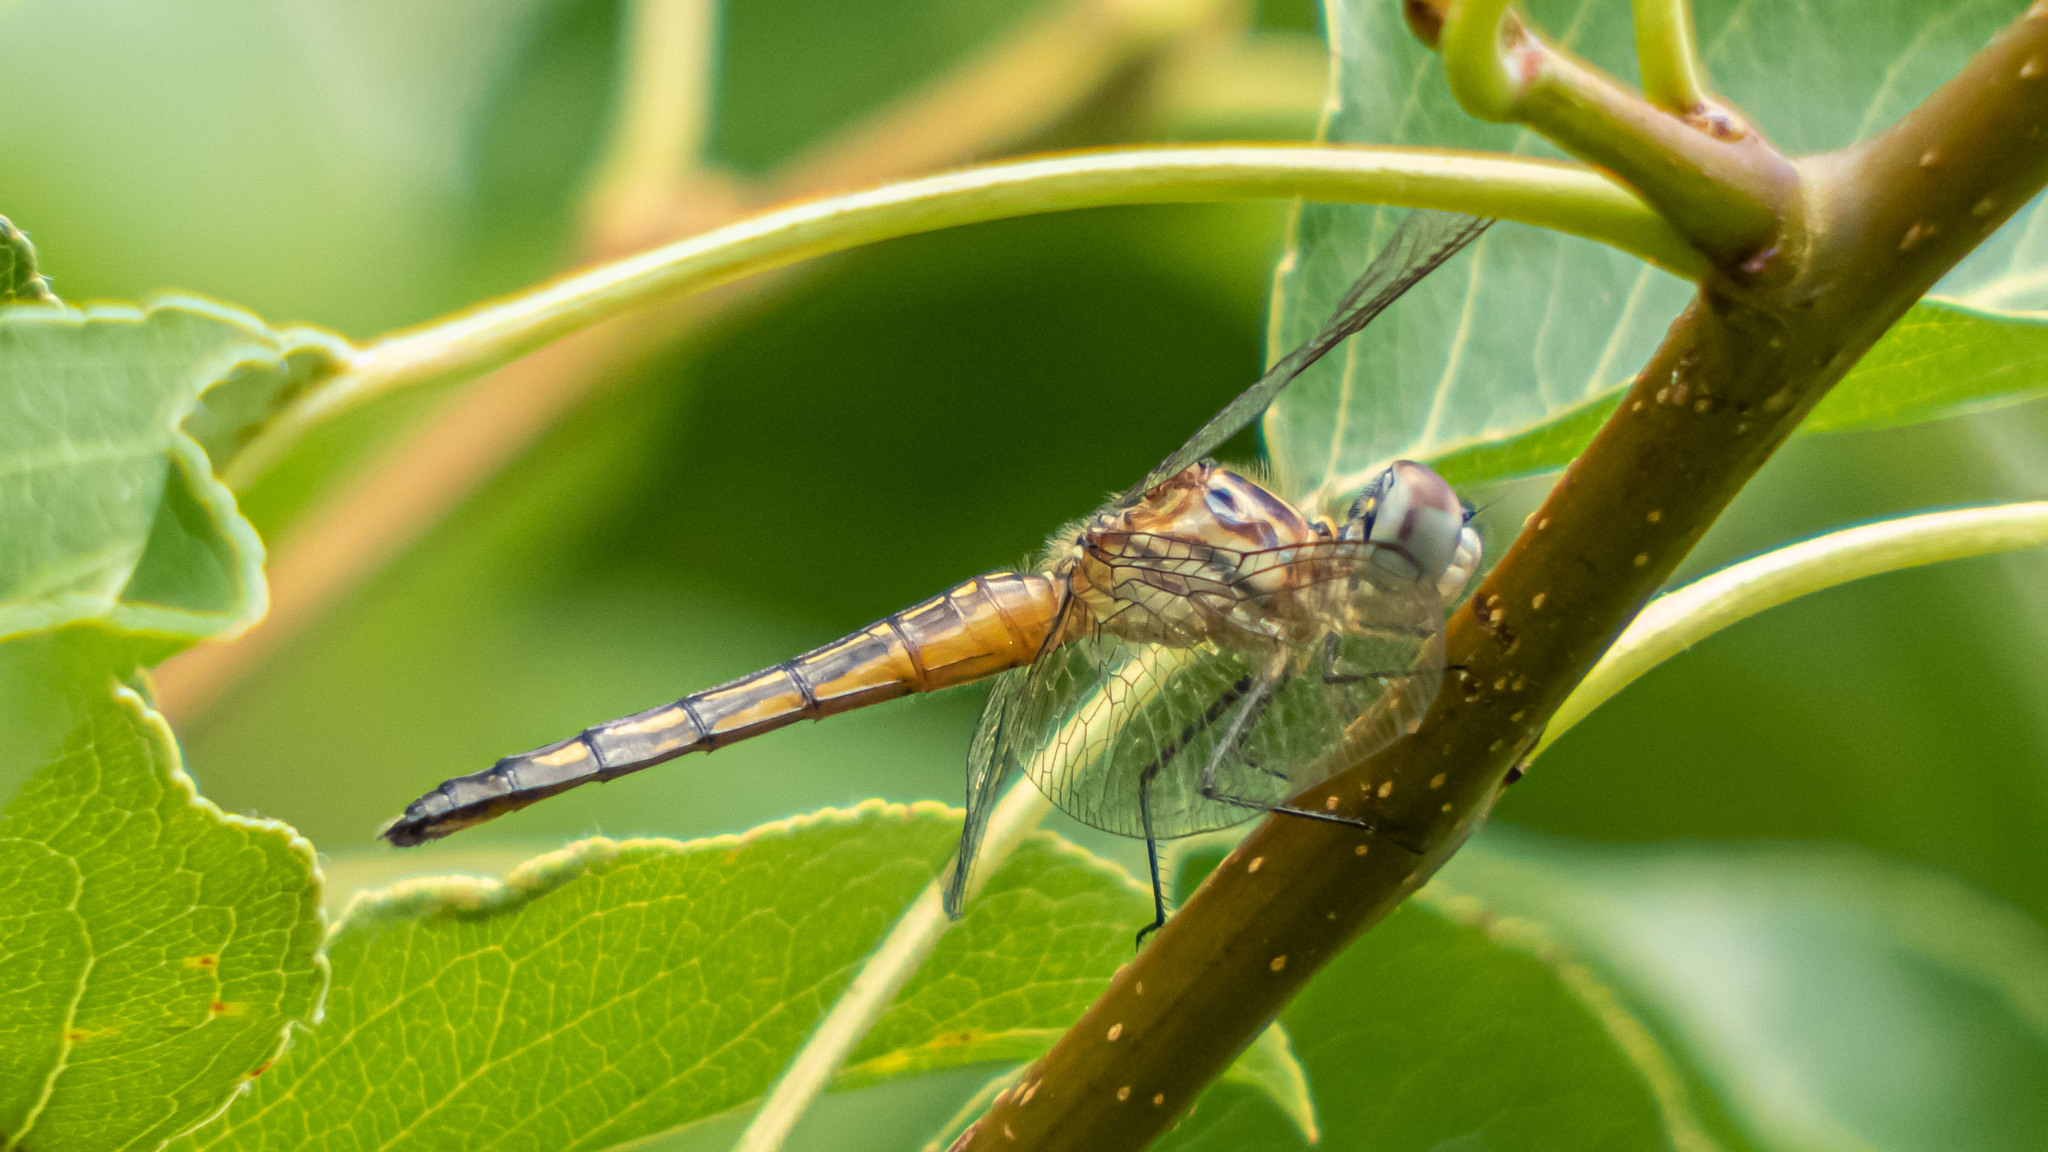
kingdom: Animalia
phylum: Arthropoda
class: Insecta
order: Odonata
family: Libellulidae
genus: Pachydiplax
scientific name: Pachydiplax longipennis
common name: Blue dasher
